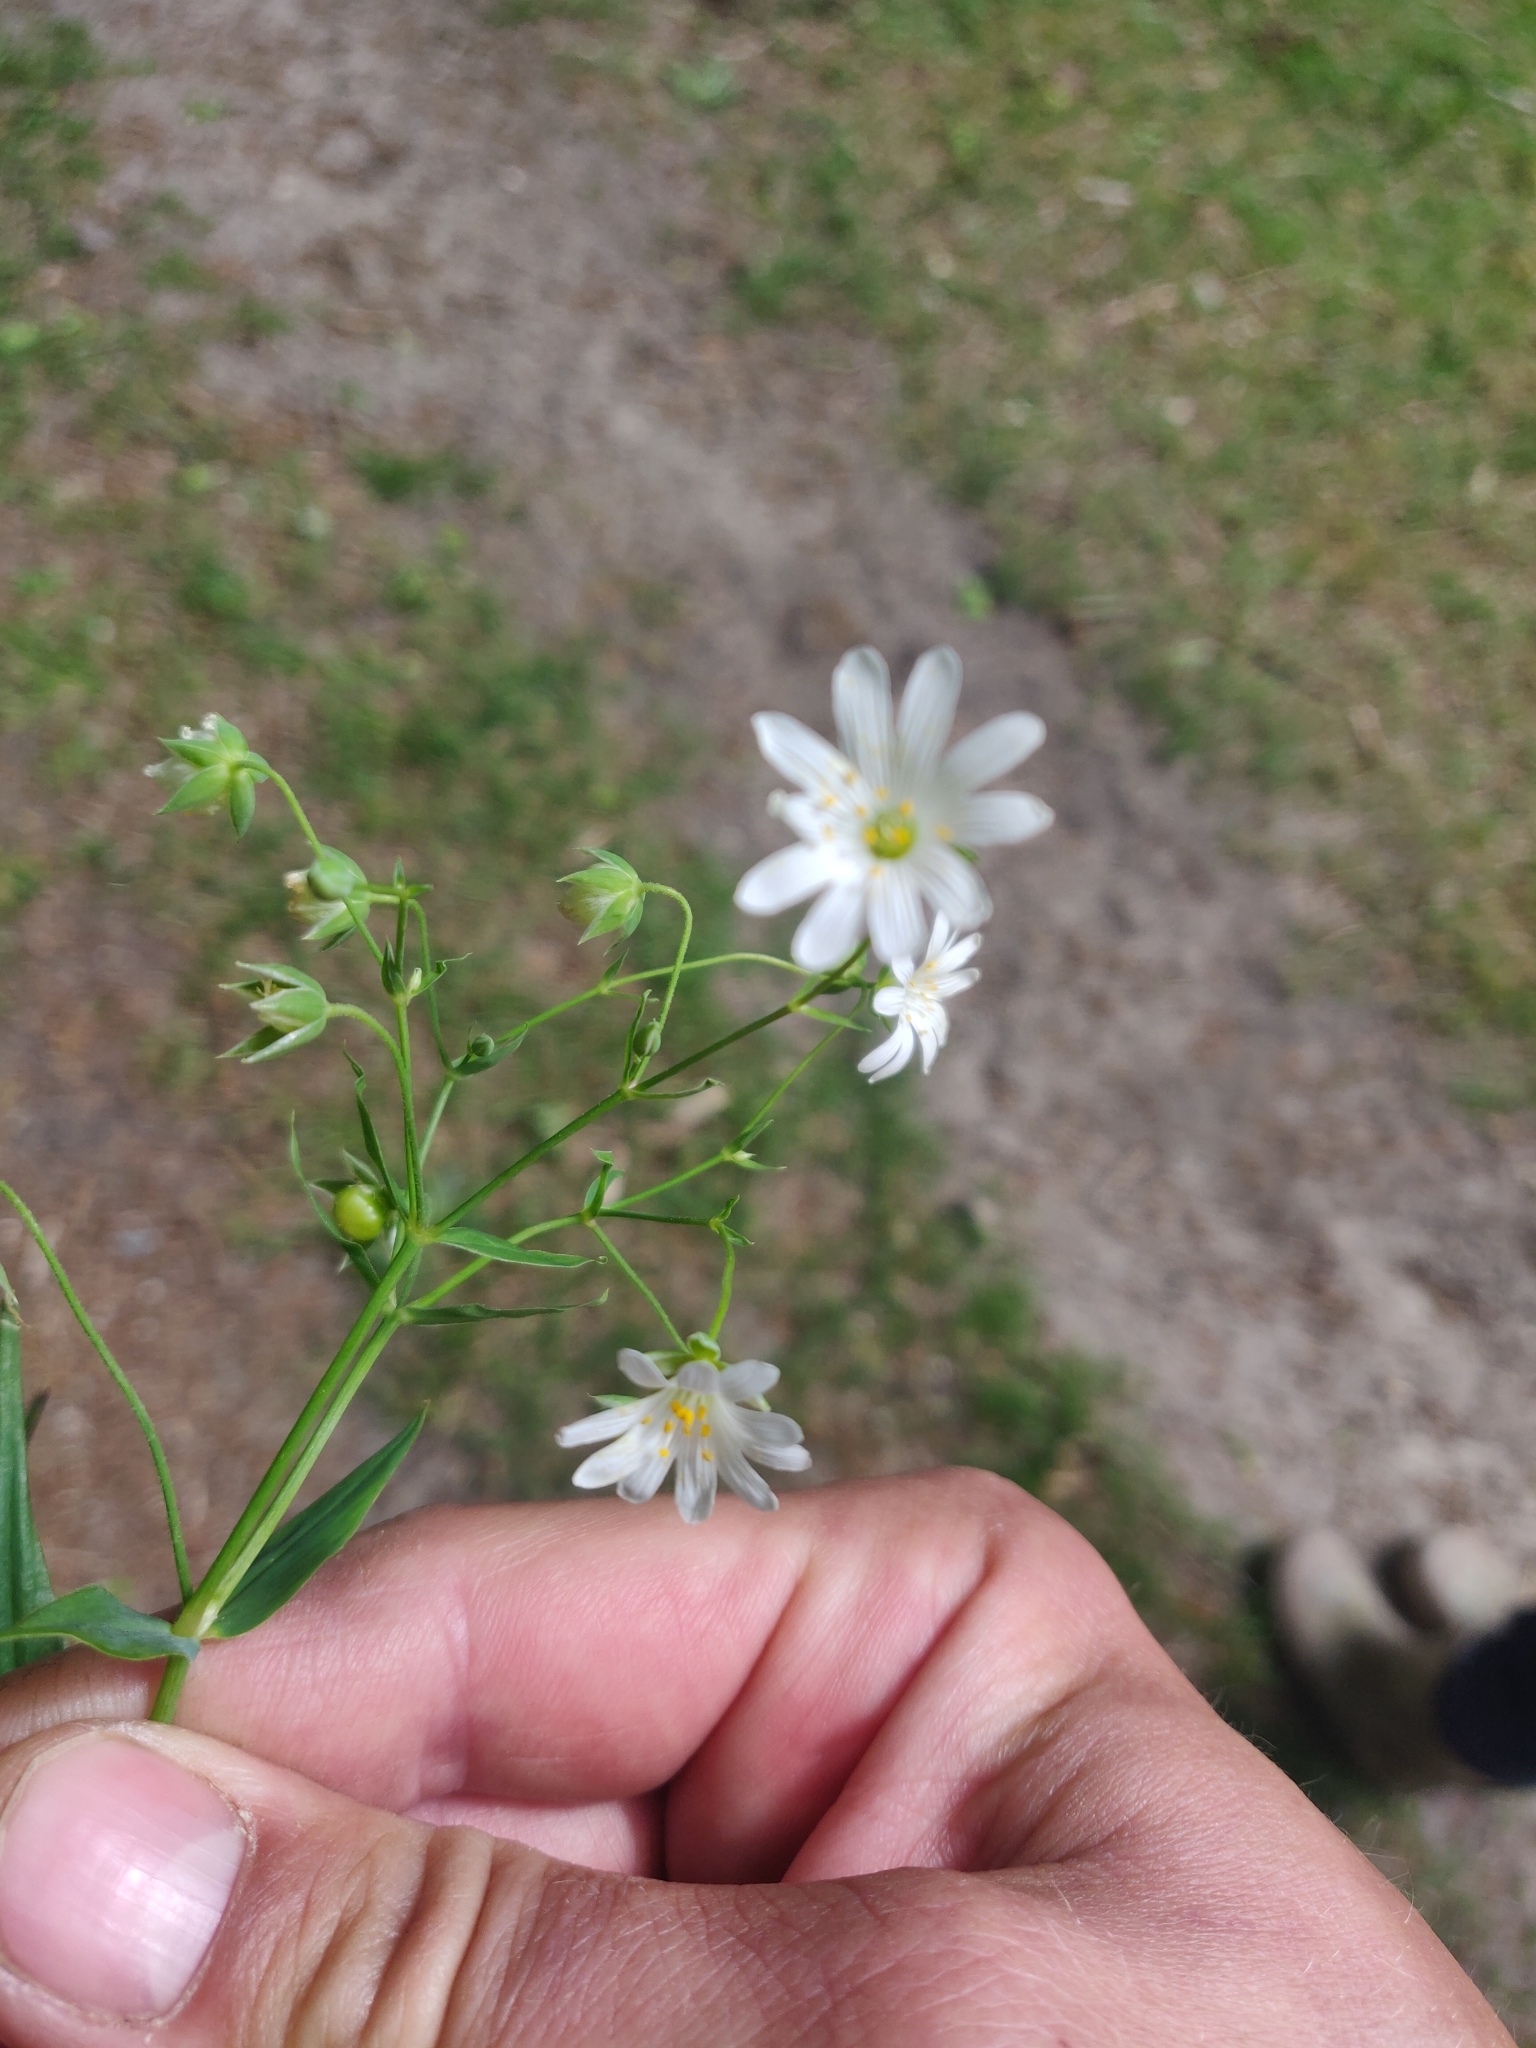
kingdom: Plantae
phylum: Tracheophyta
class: Magnoliopsida
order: Caryophyllales
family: Caryophyllaceae
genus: Rabelera
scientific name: Rabelera holostea
